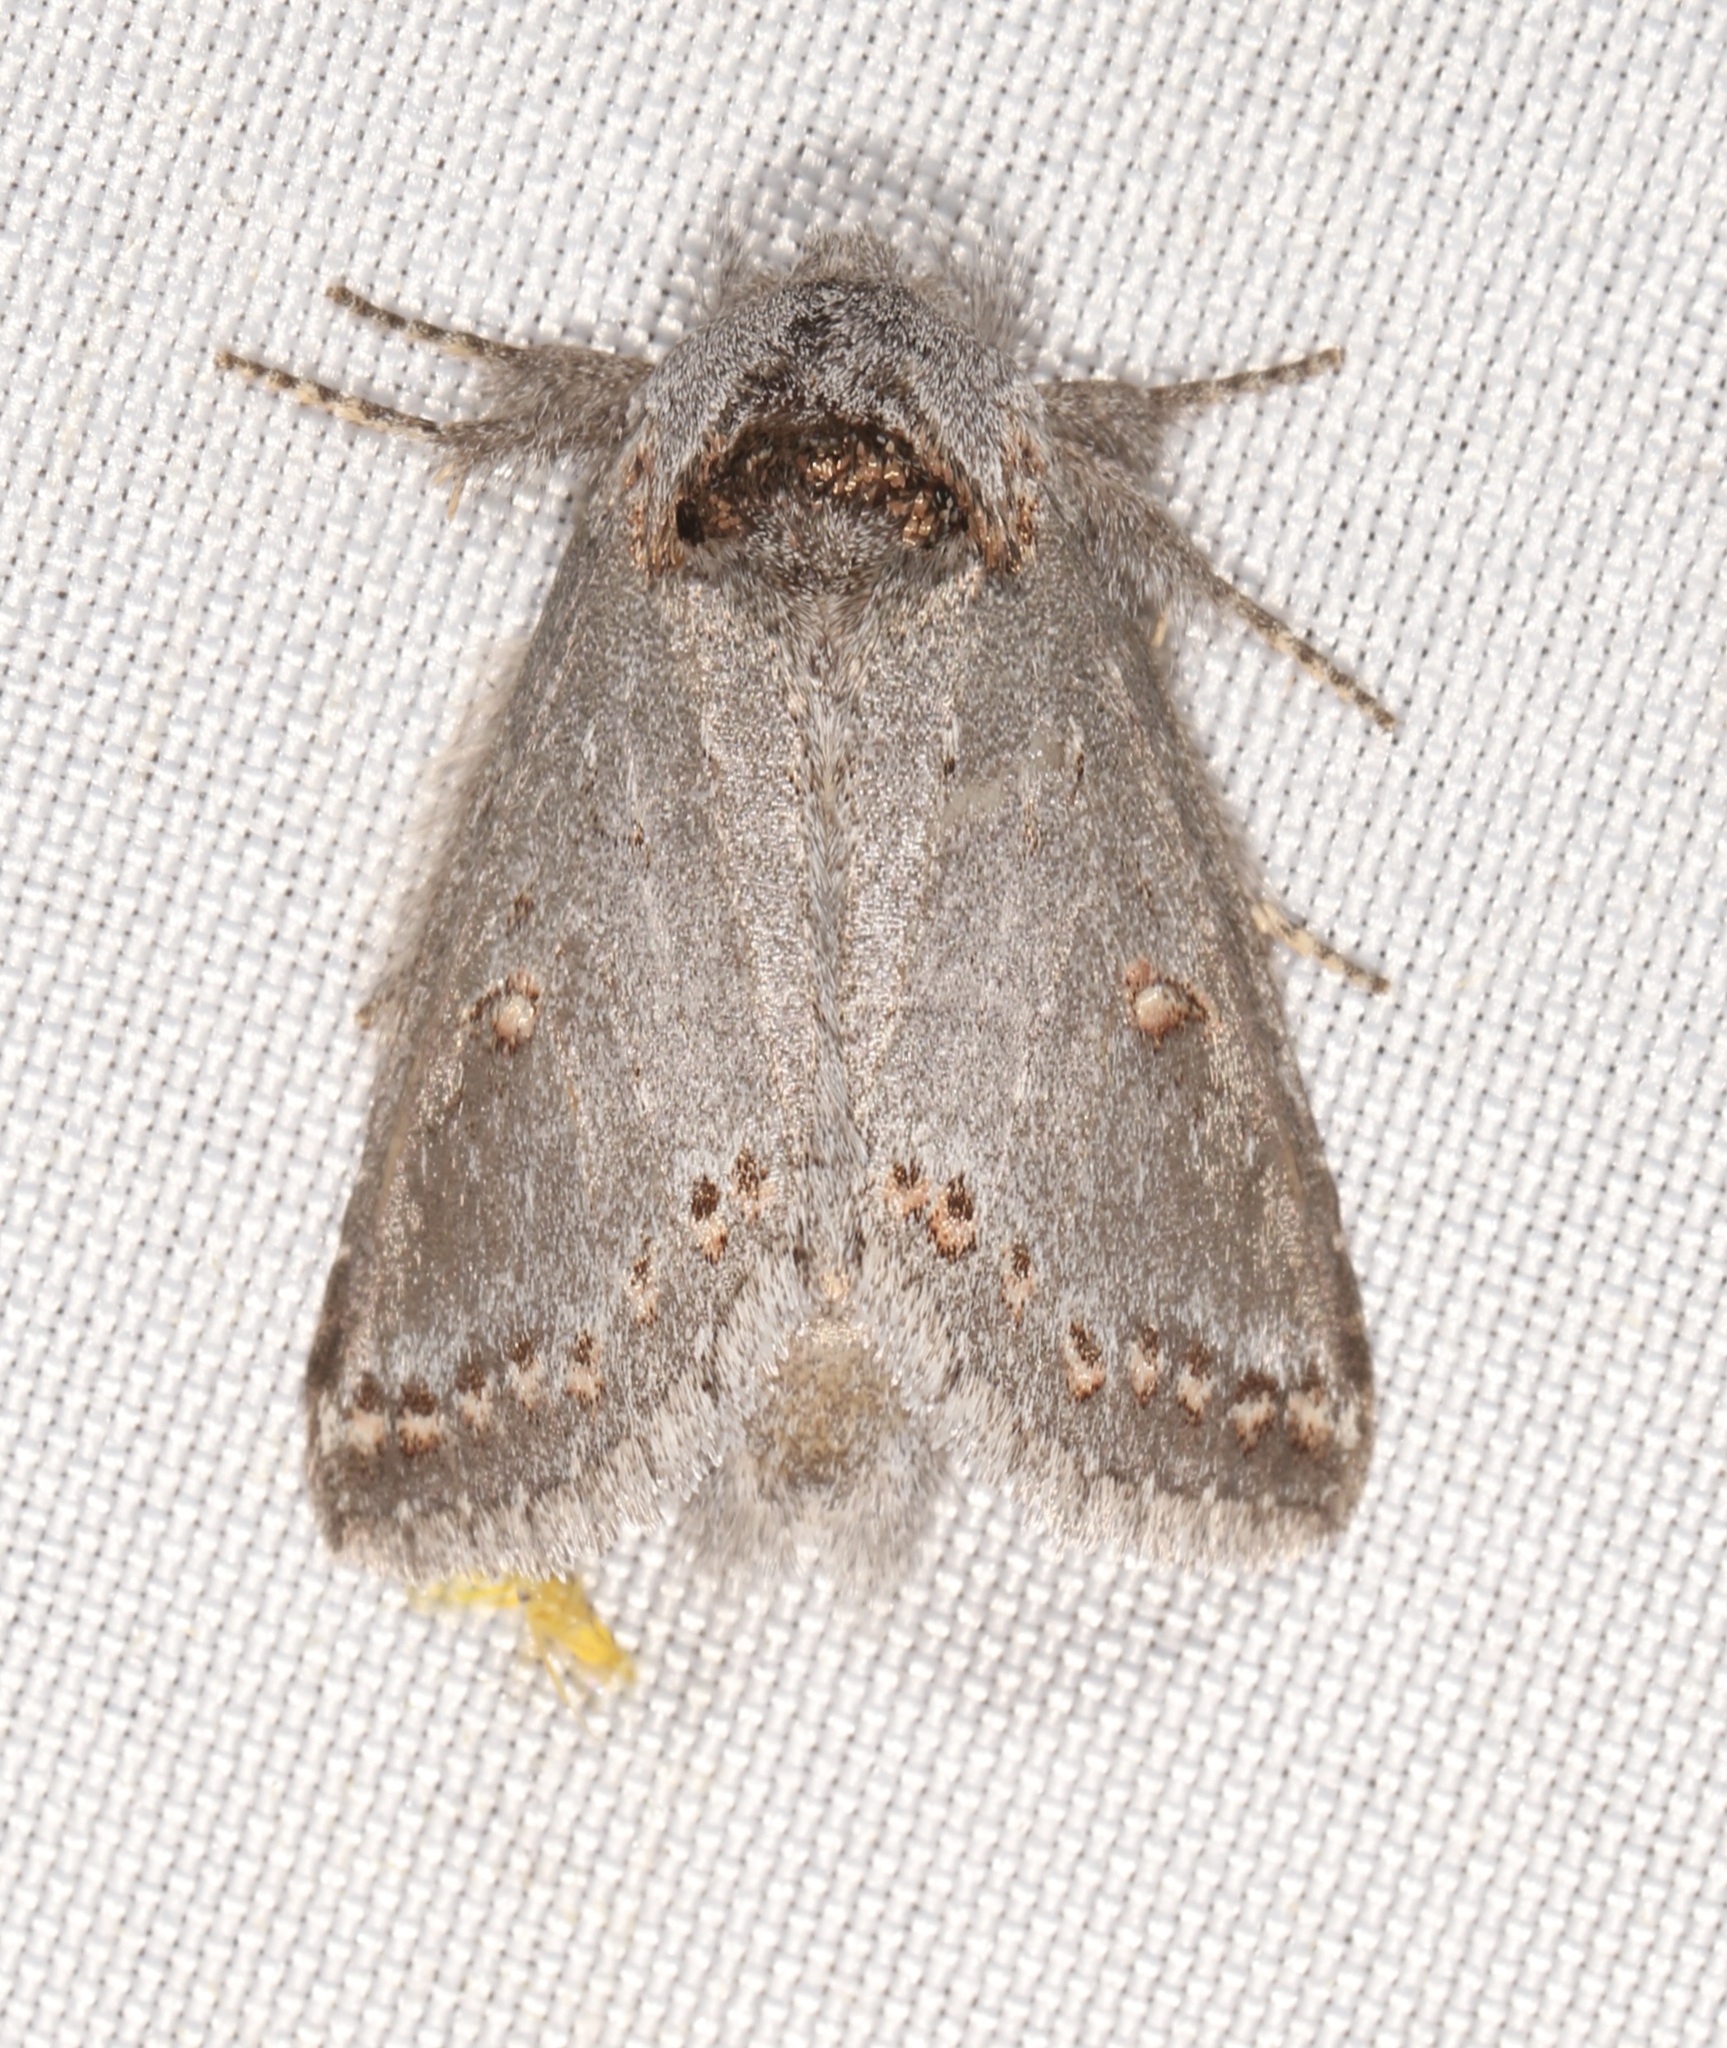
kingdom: Animalia
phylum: Arthropoda
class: Insecta
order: Lepidoptera
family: Notodontidae
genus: Theroa
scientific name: Theroa zethus
